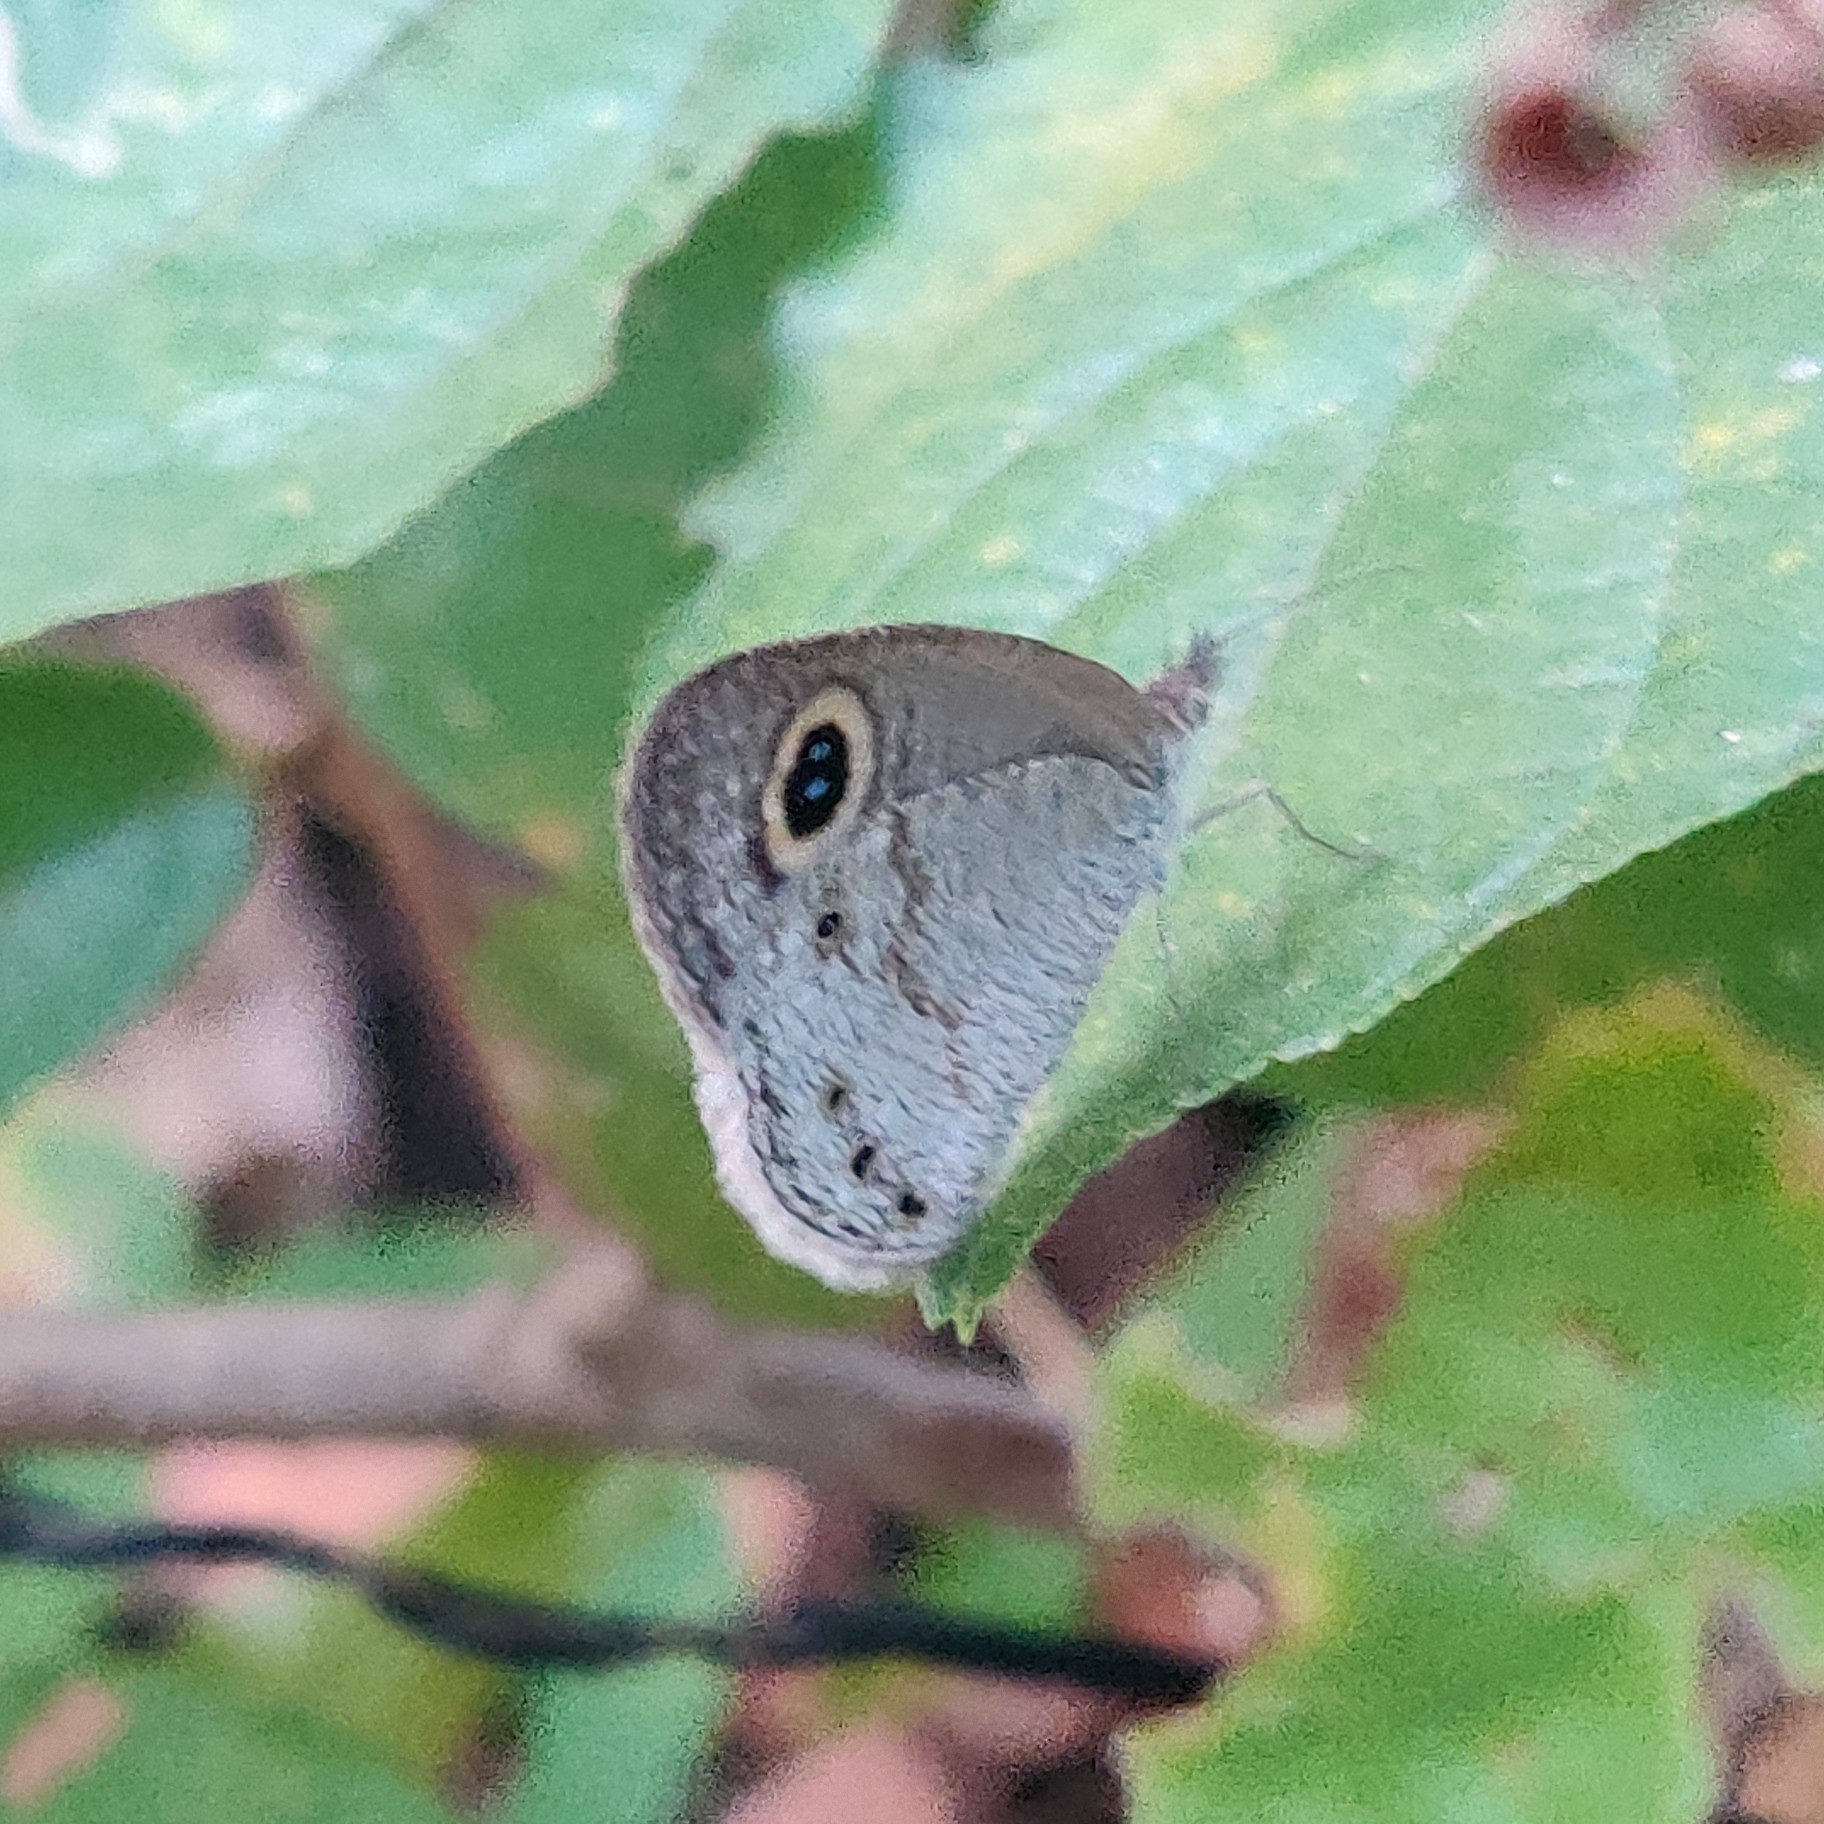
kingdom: Animalia
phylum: Arthropoda
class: Insecta
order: Lepidoptera
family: Nymphalidae
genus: Ypthima
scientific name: Ypthima huebneri
